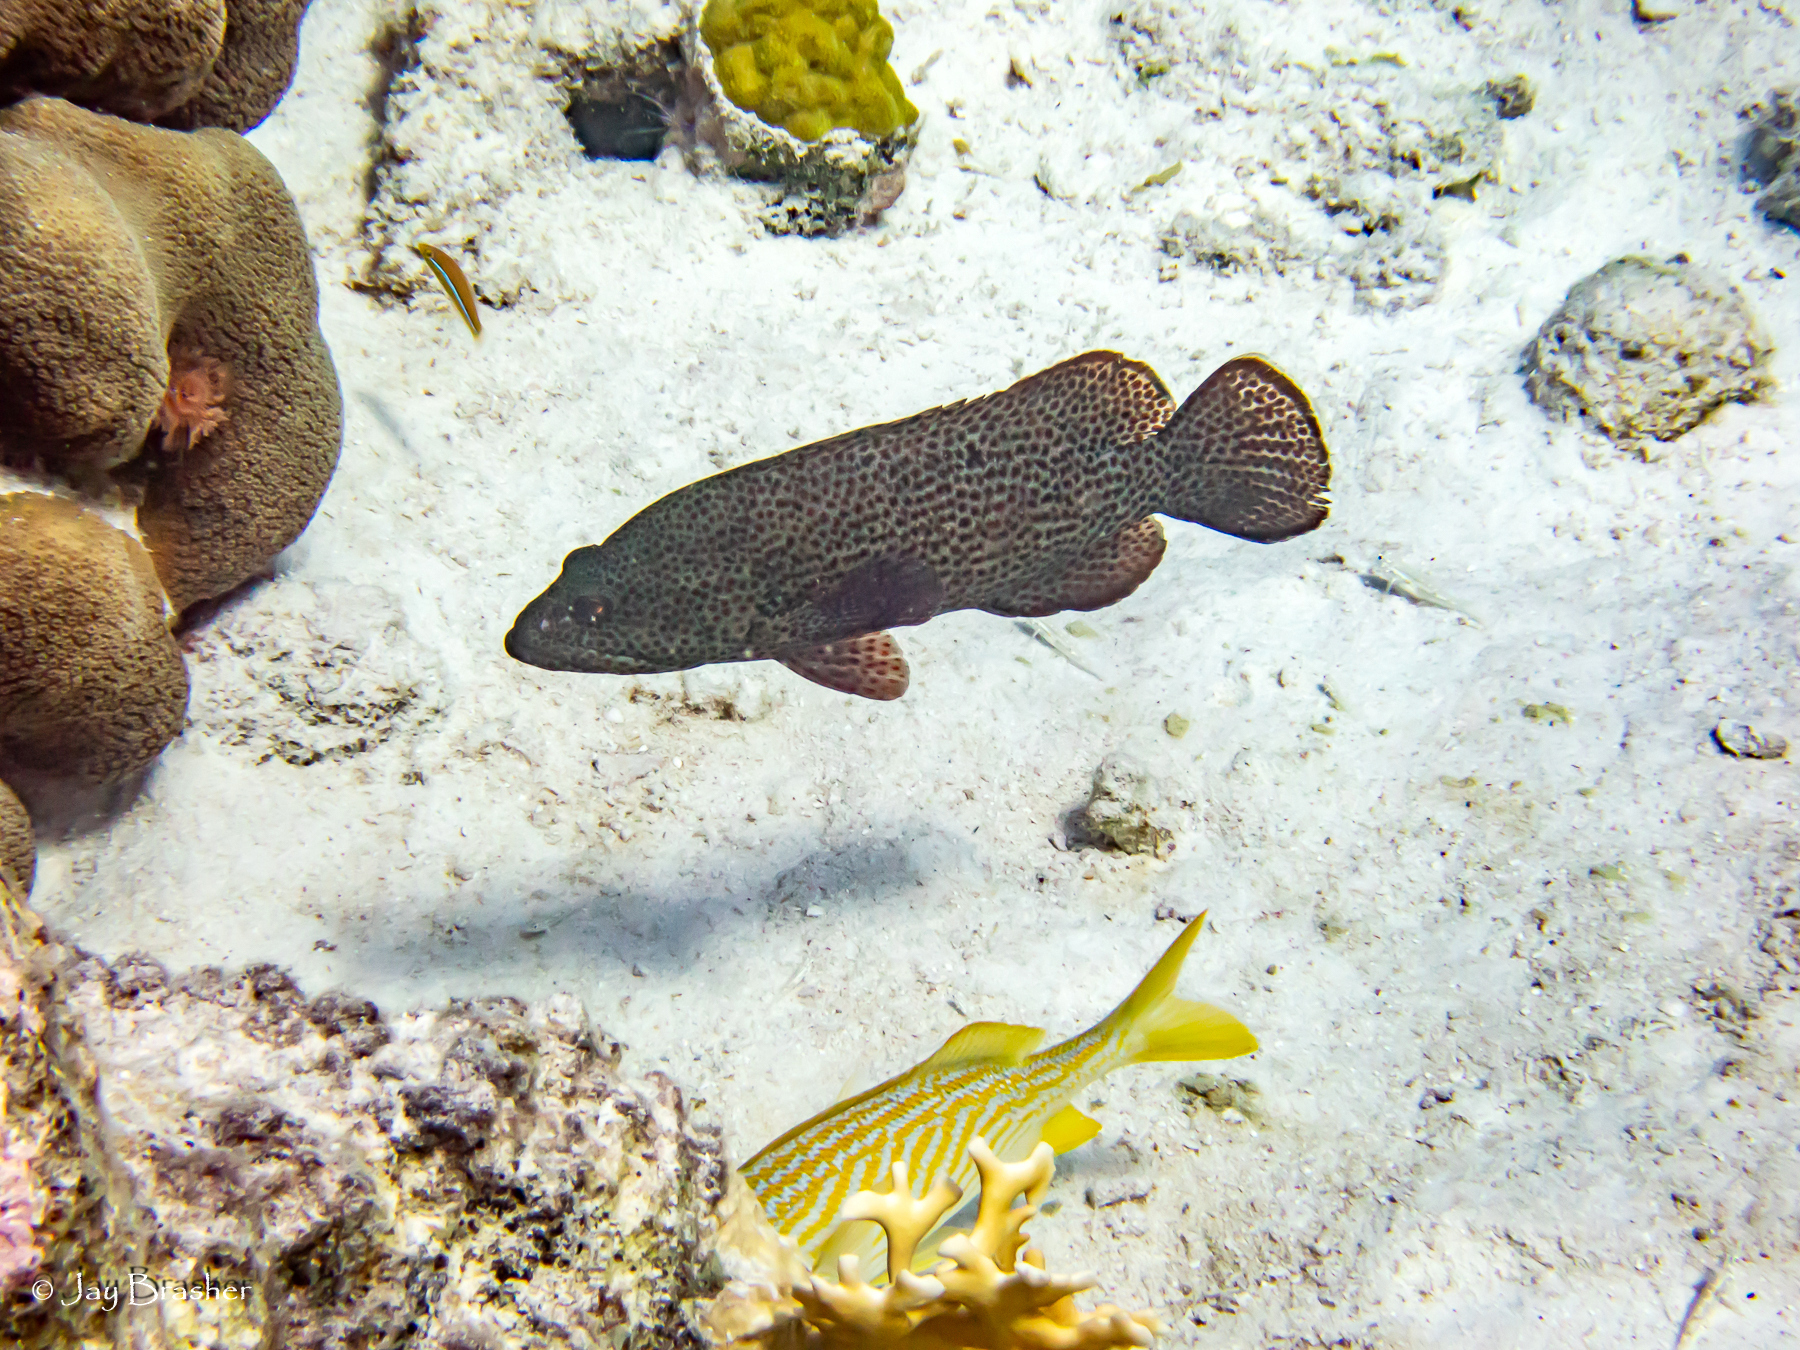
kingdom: Animalia
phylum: Chordata
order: Perciformes
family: Serranidae
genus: Cephalopholis
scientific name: Cephalopholis cruentata
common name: Graysby
